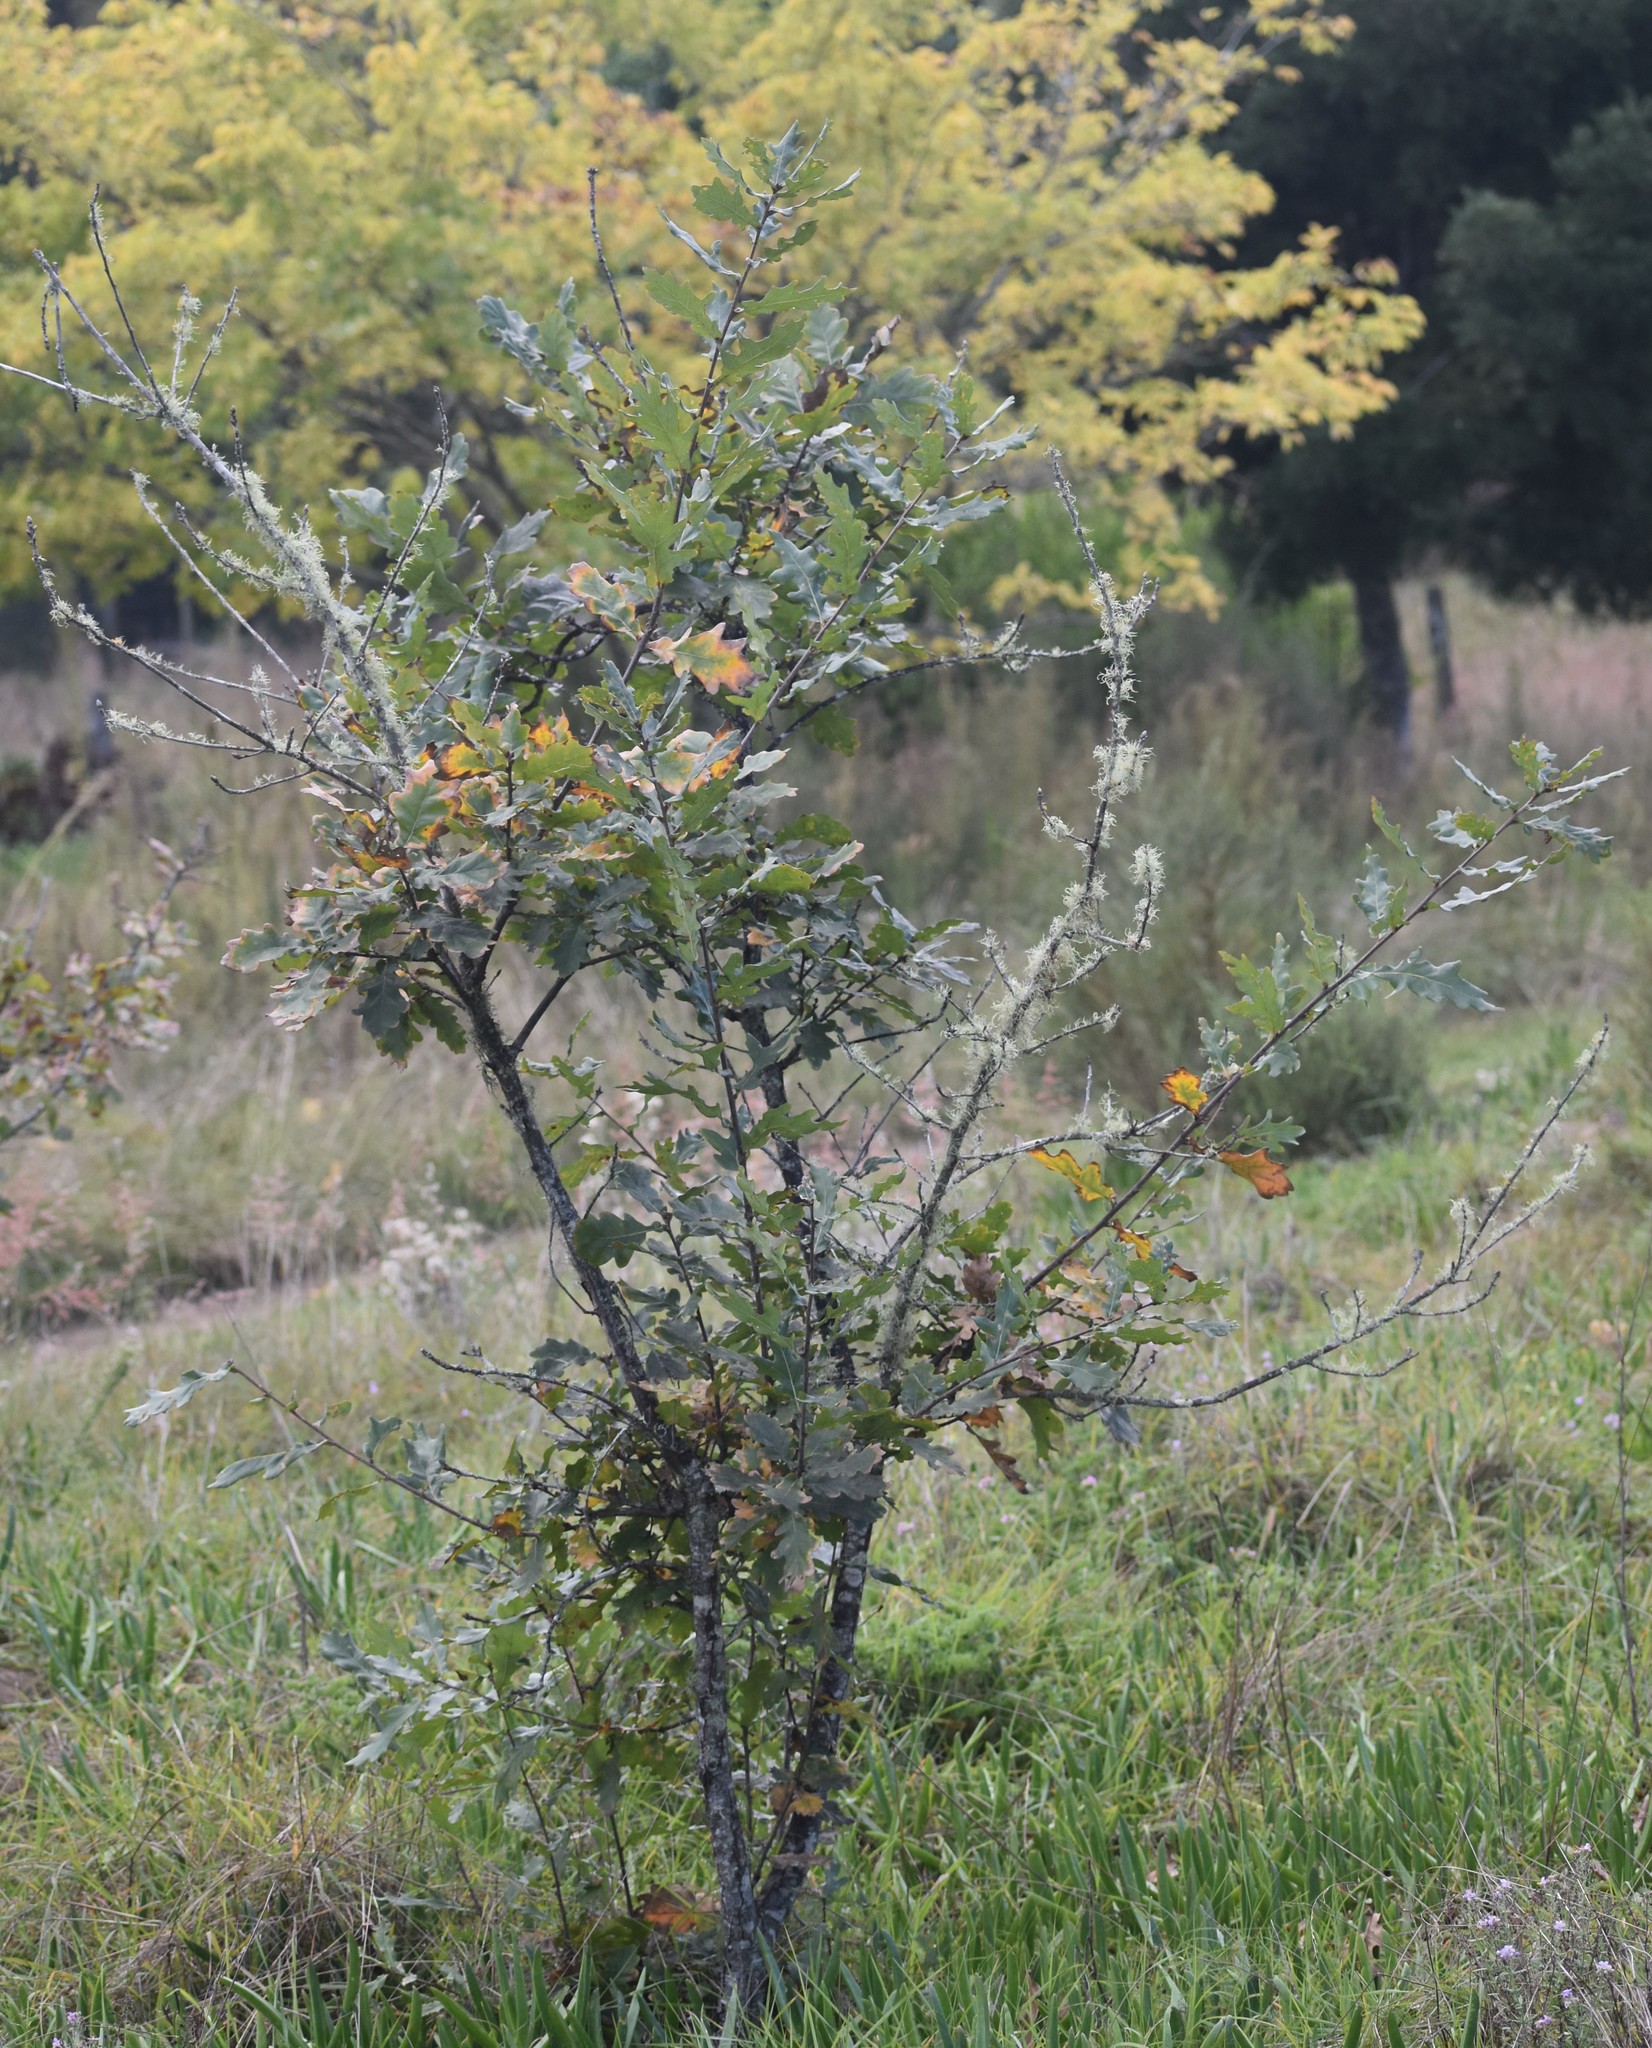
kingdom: Plantae
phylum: Tracheophyta
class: Magnoliopsida
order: Fagales
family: Fagaceae
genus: Quercus
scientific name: Quercus robur
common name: Pedunculate oak
